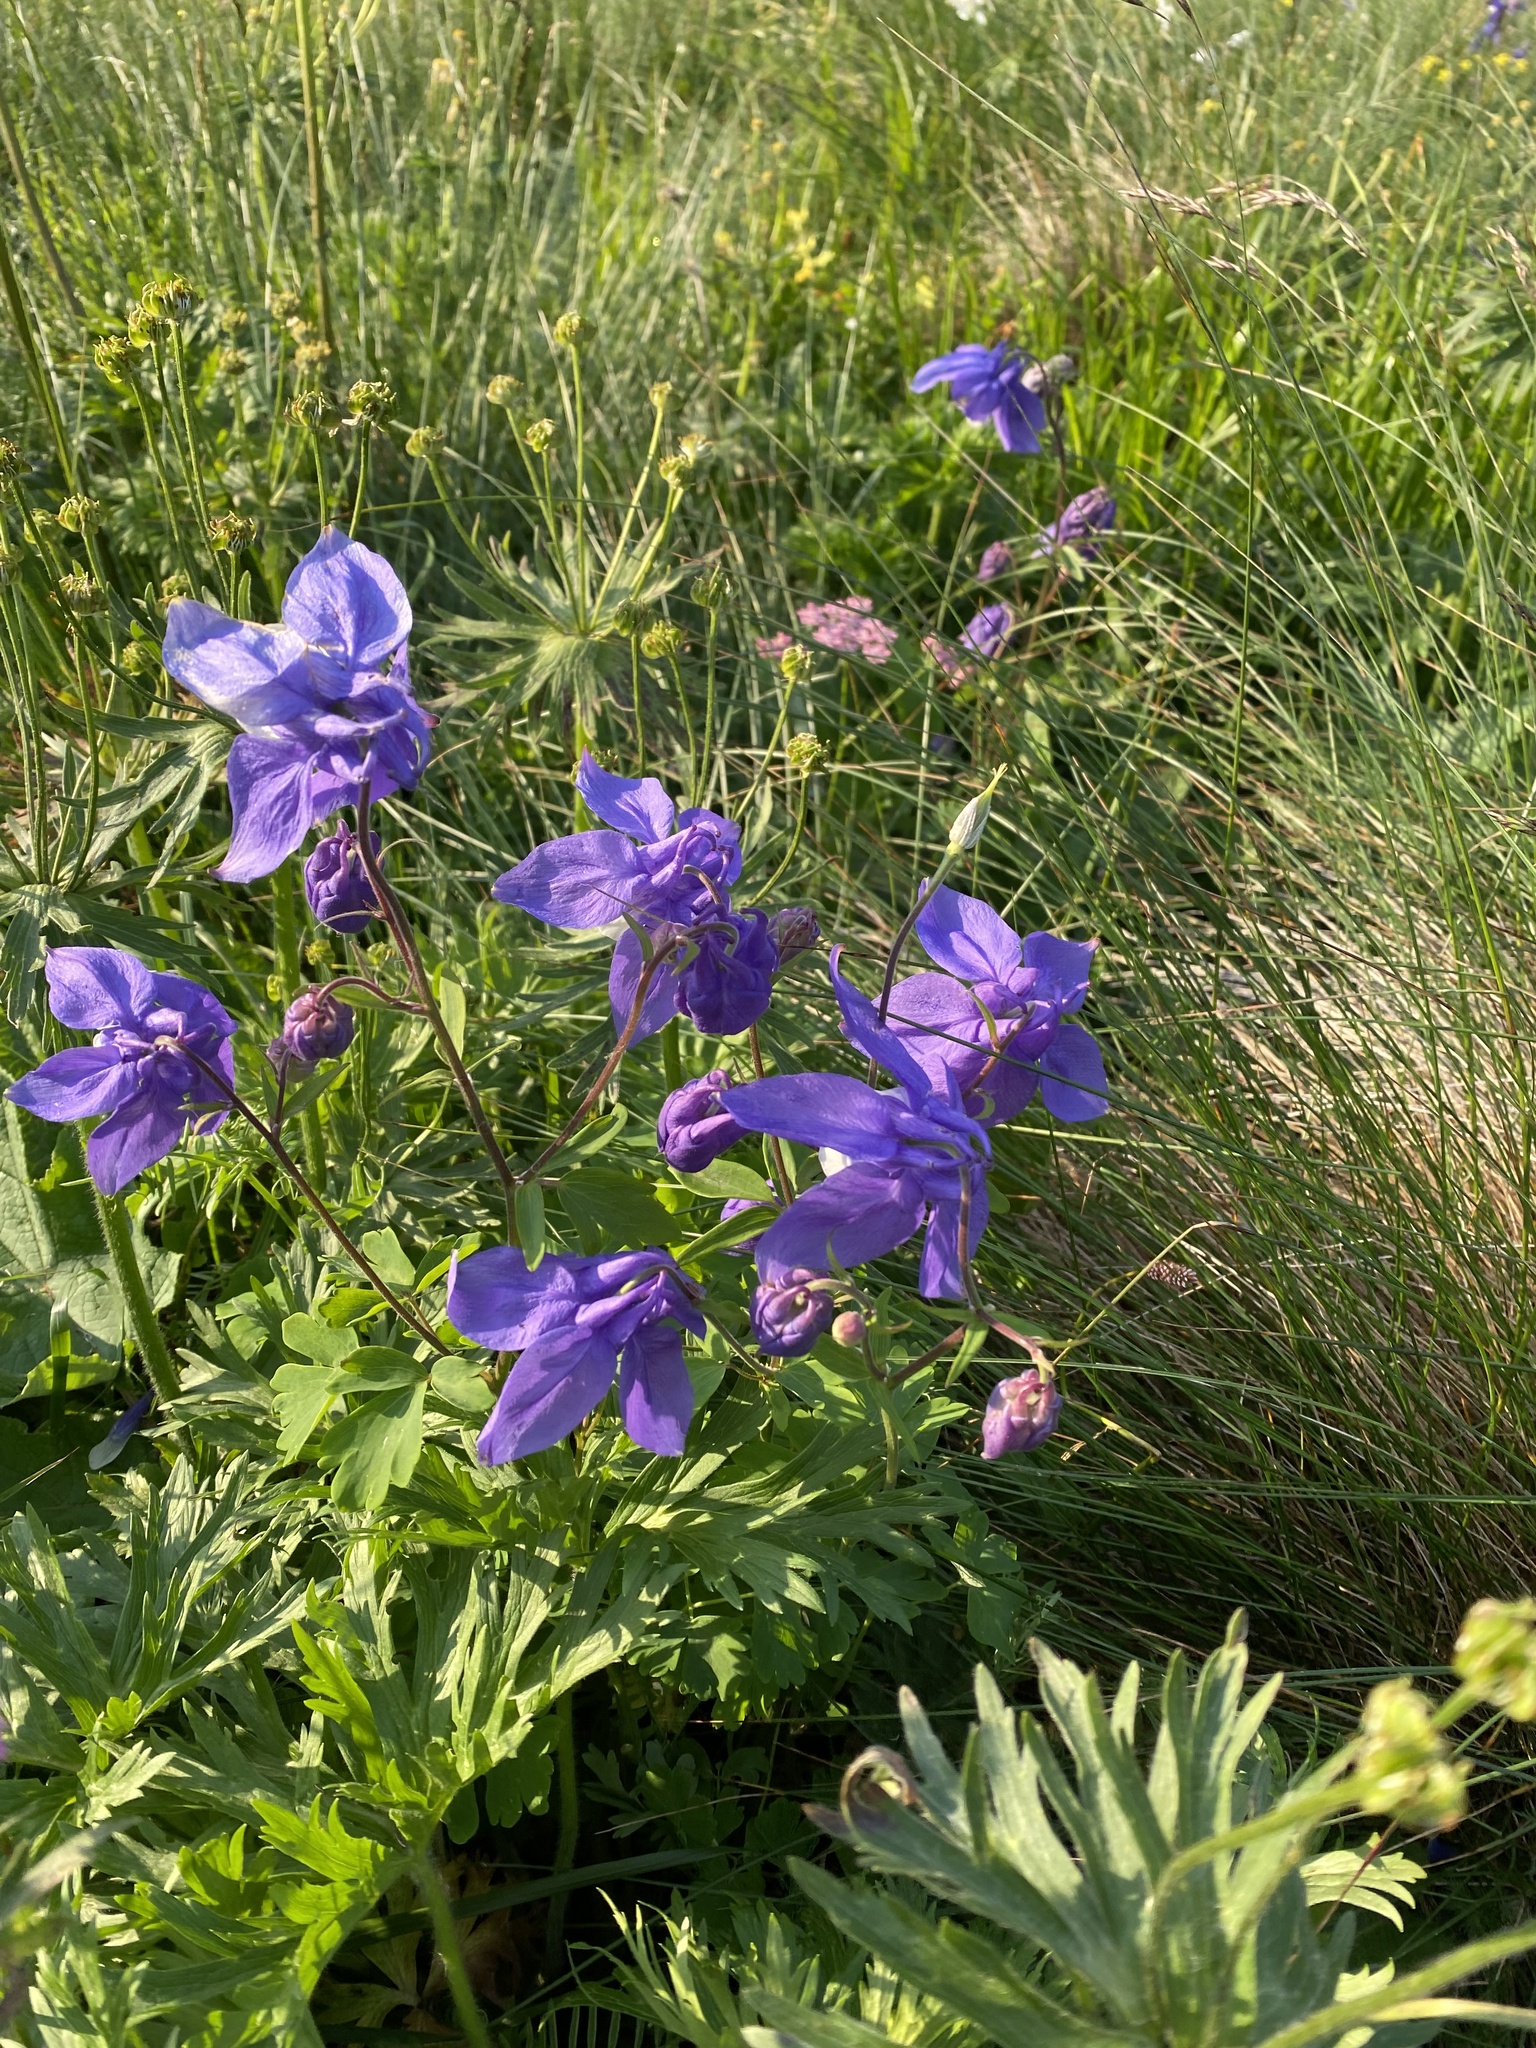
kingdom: Plantae
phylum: Tracheophyta
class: Magnoliopsida
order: Ranunculales
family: Ranunculaceae
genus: Aquilegia
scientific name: Aquilegia olympica
